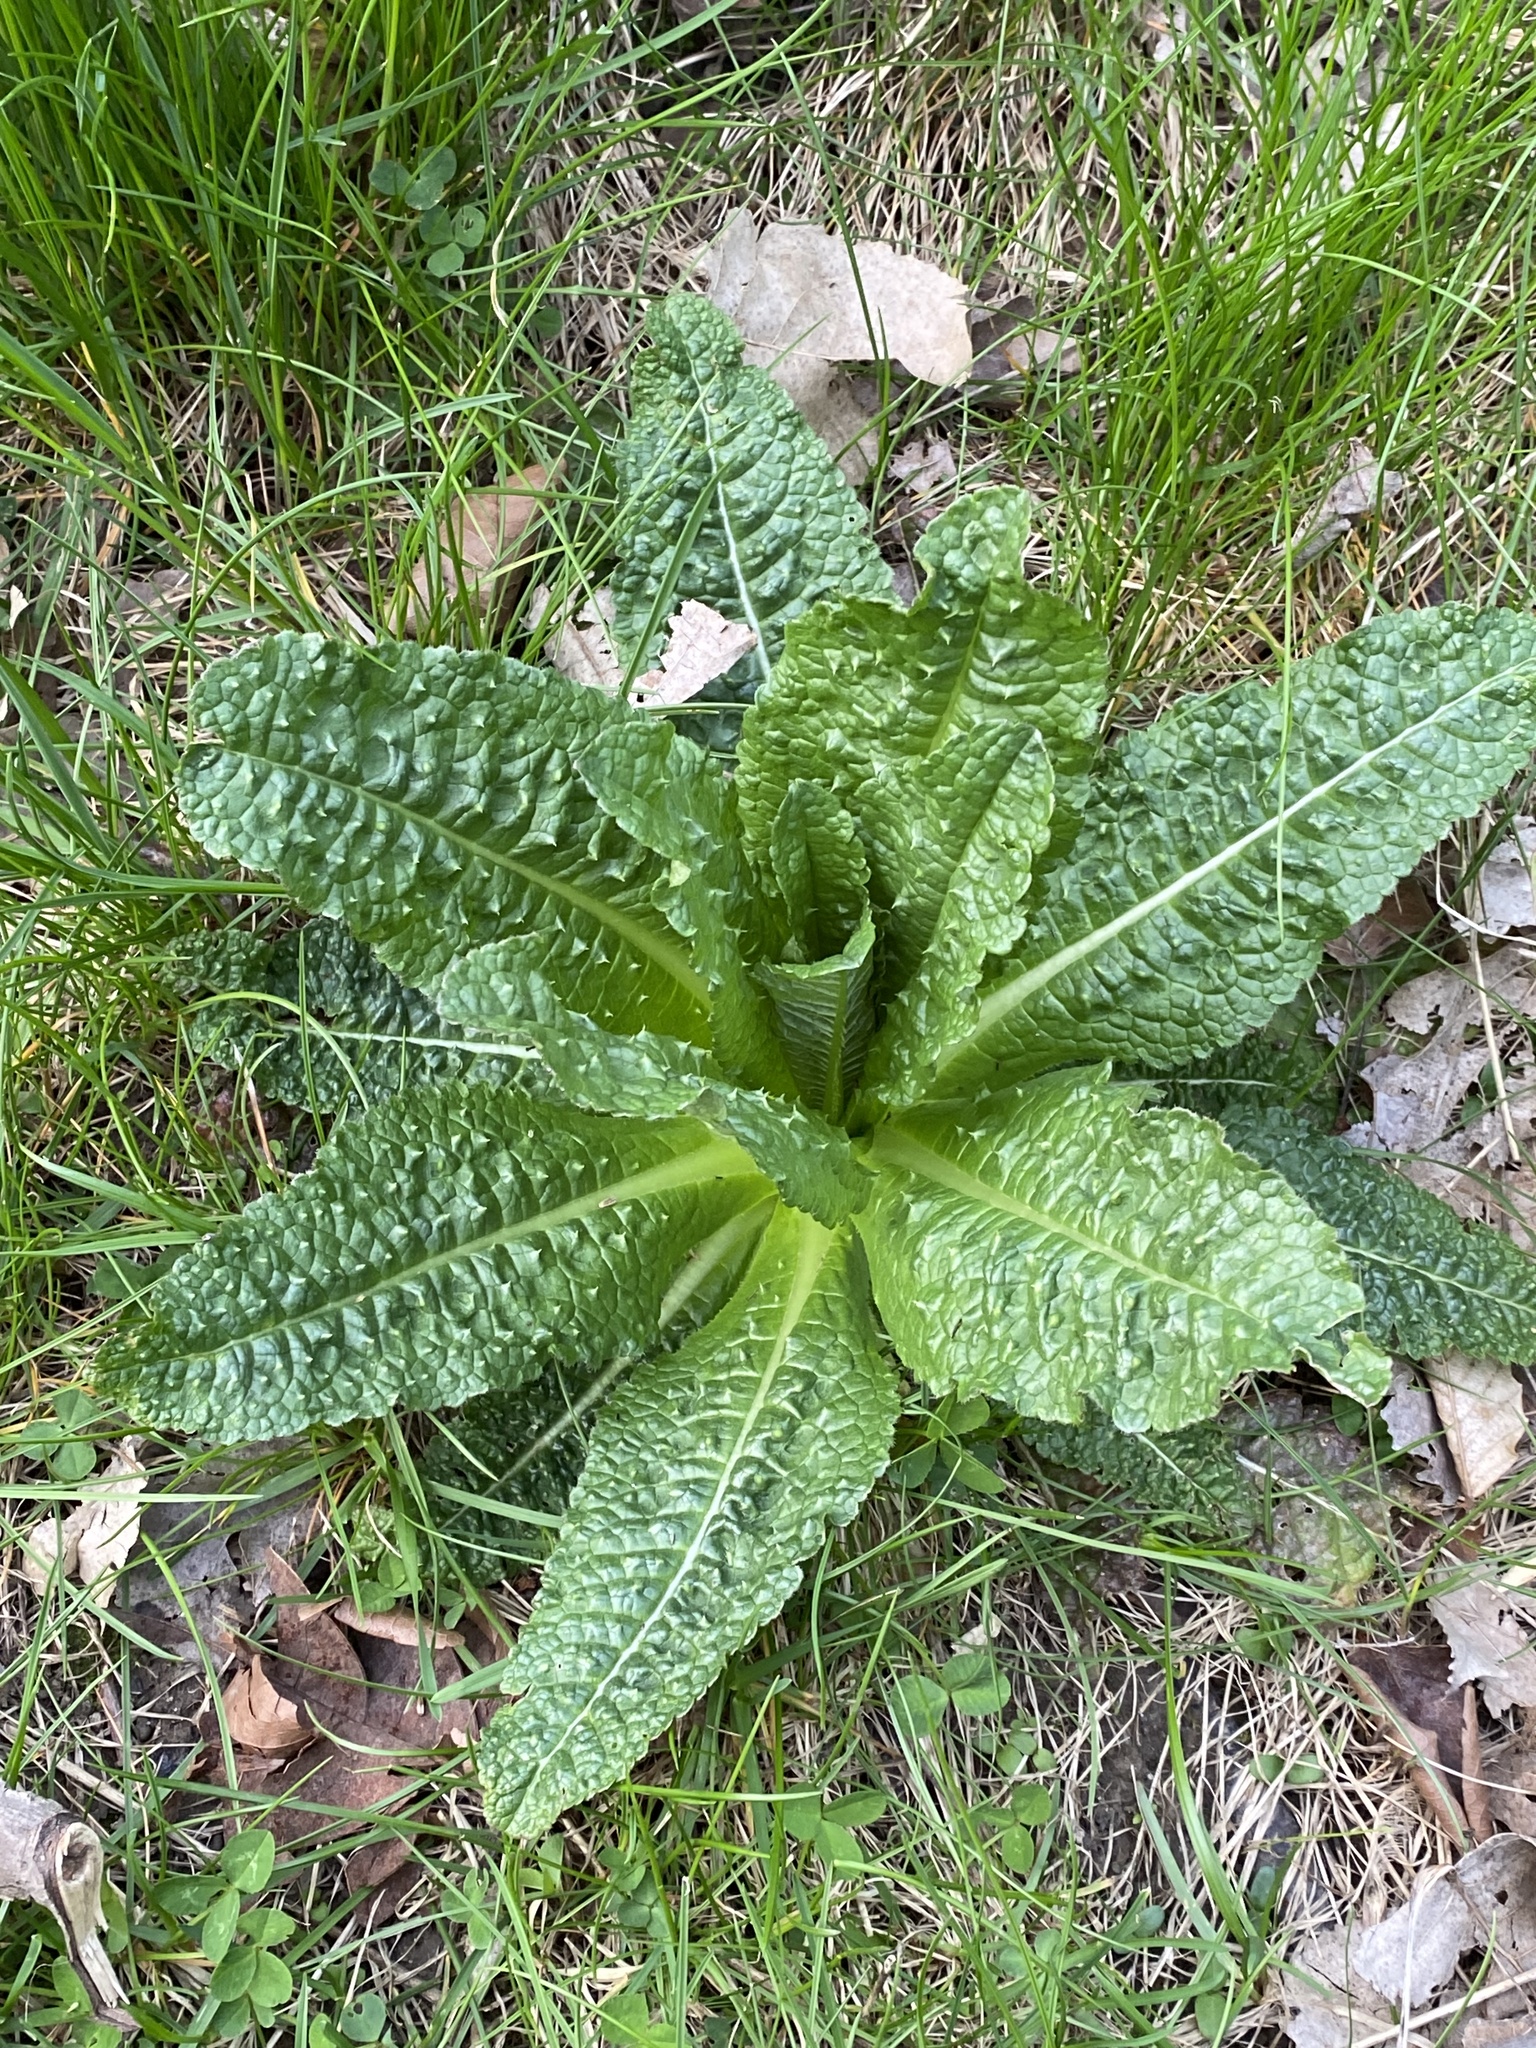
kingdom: Plantae
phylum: Tracheophyta
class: Magnoliopsida
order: Dipsacales
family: Caprifoliaceae
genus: Dipsacus
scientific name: Dipsacus fullonum
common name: Teasel
